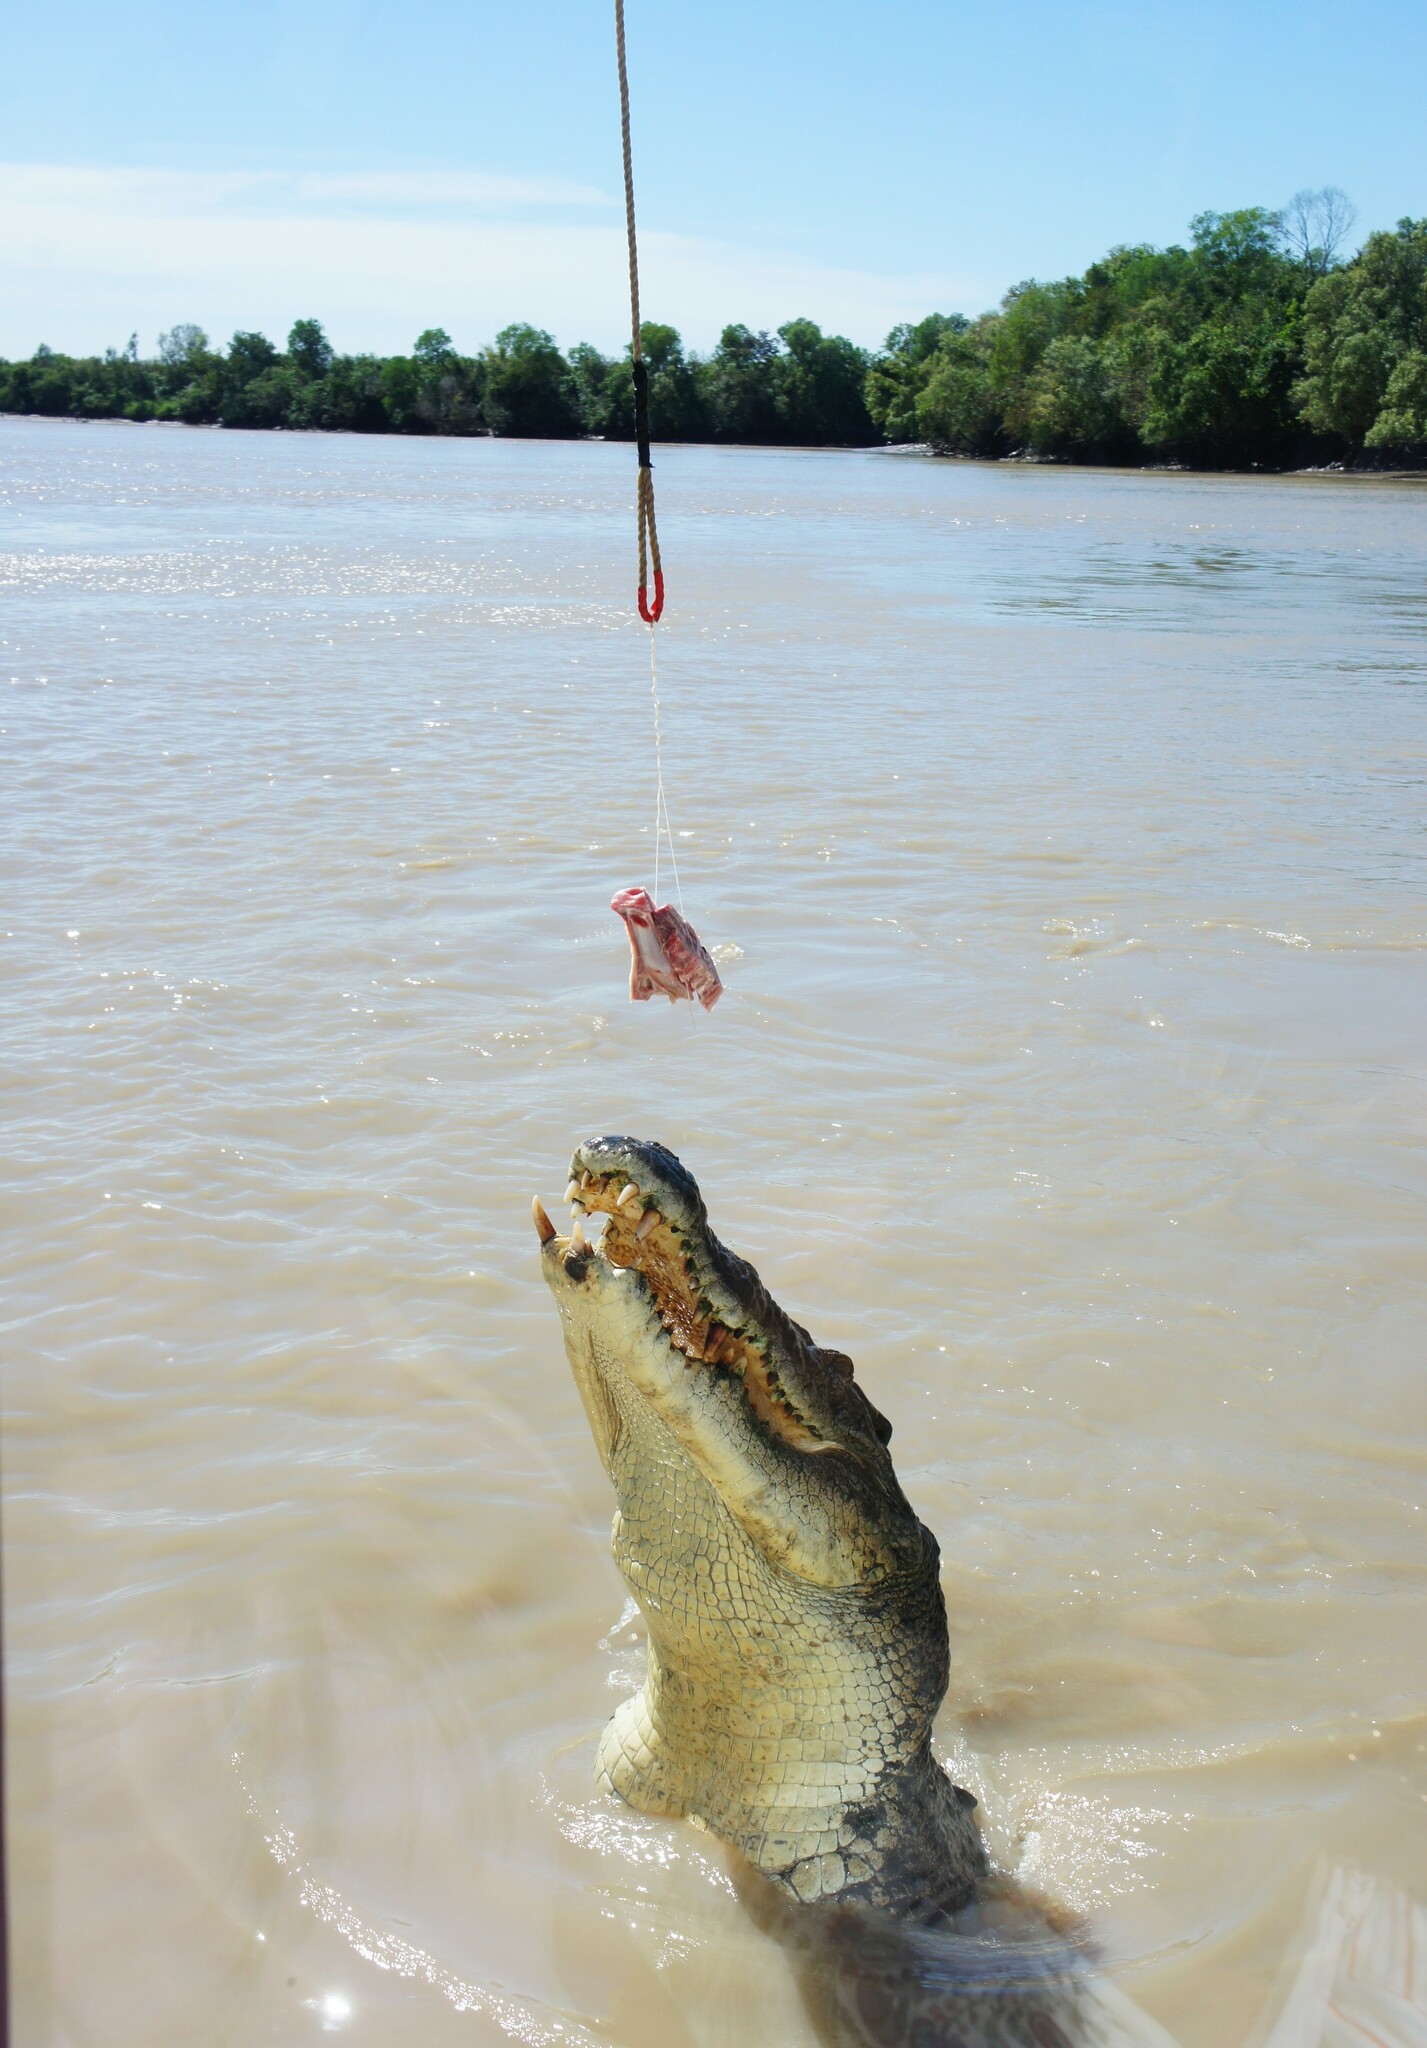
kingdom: Animalia
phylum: Chordata
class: Crocodylia
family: Crocodylidae
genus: Crocodylus
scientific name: Crocodylus porosus
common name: Saltwater crocodile
